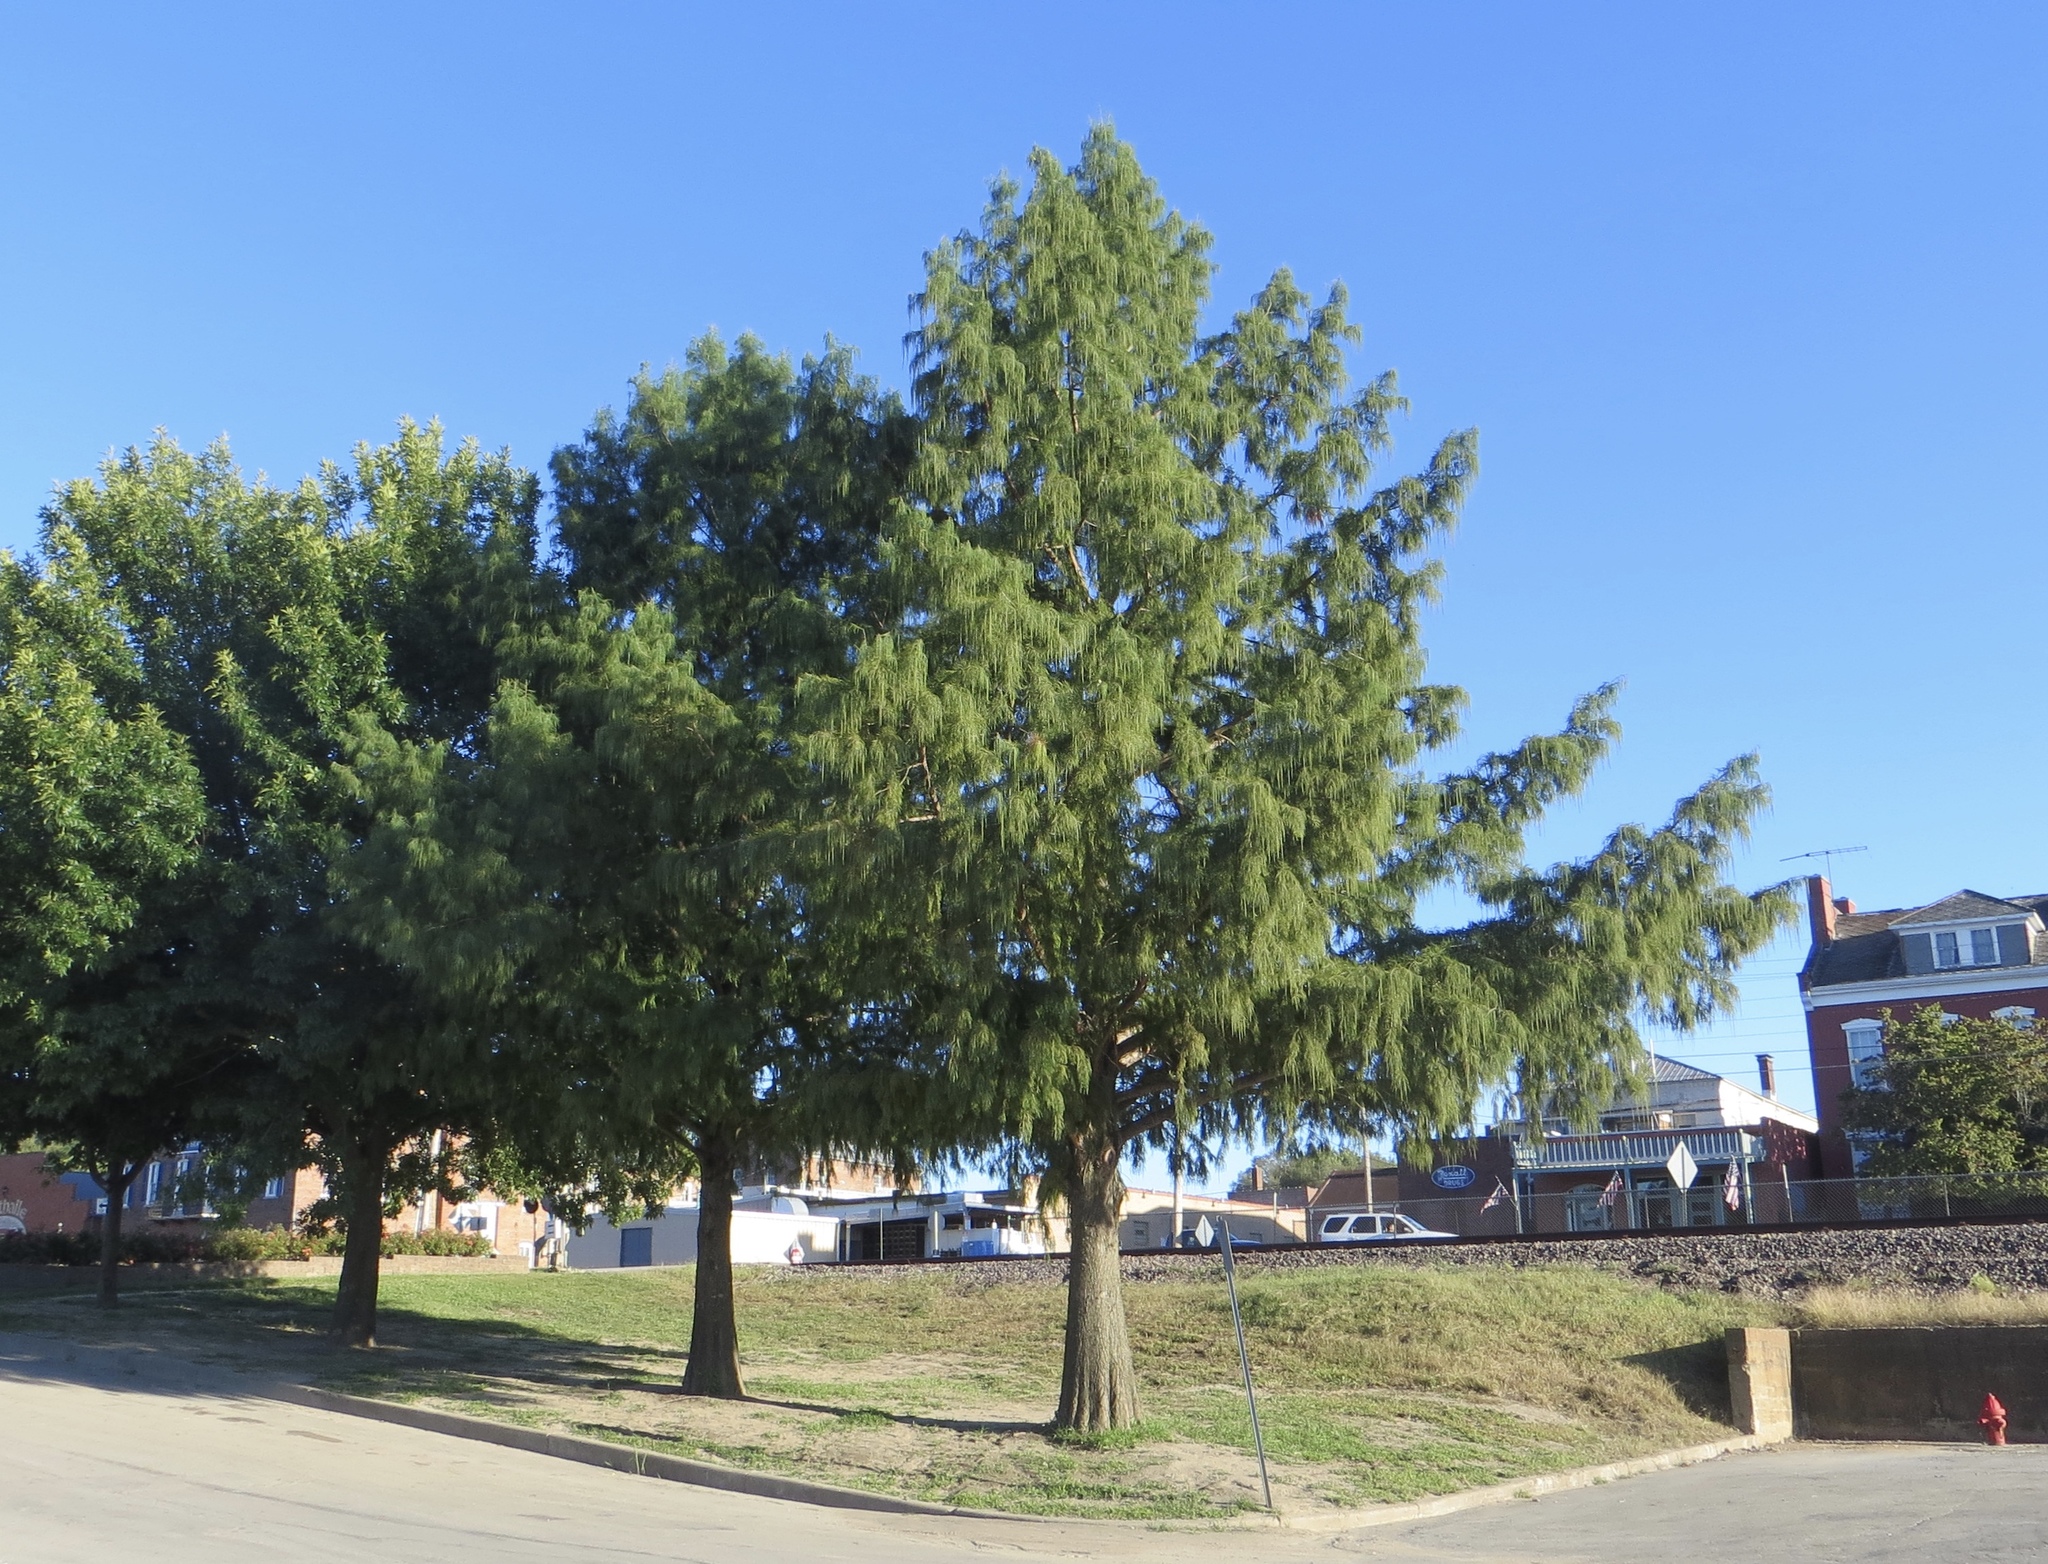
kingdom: Plantae
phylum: Tracheophyta
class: Pinopsida
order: Pinales
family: Cupressaceae
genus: Taxodium
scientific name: Taxodium distichum
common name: Bald cypress
